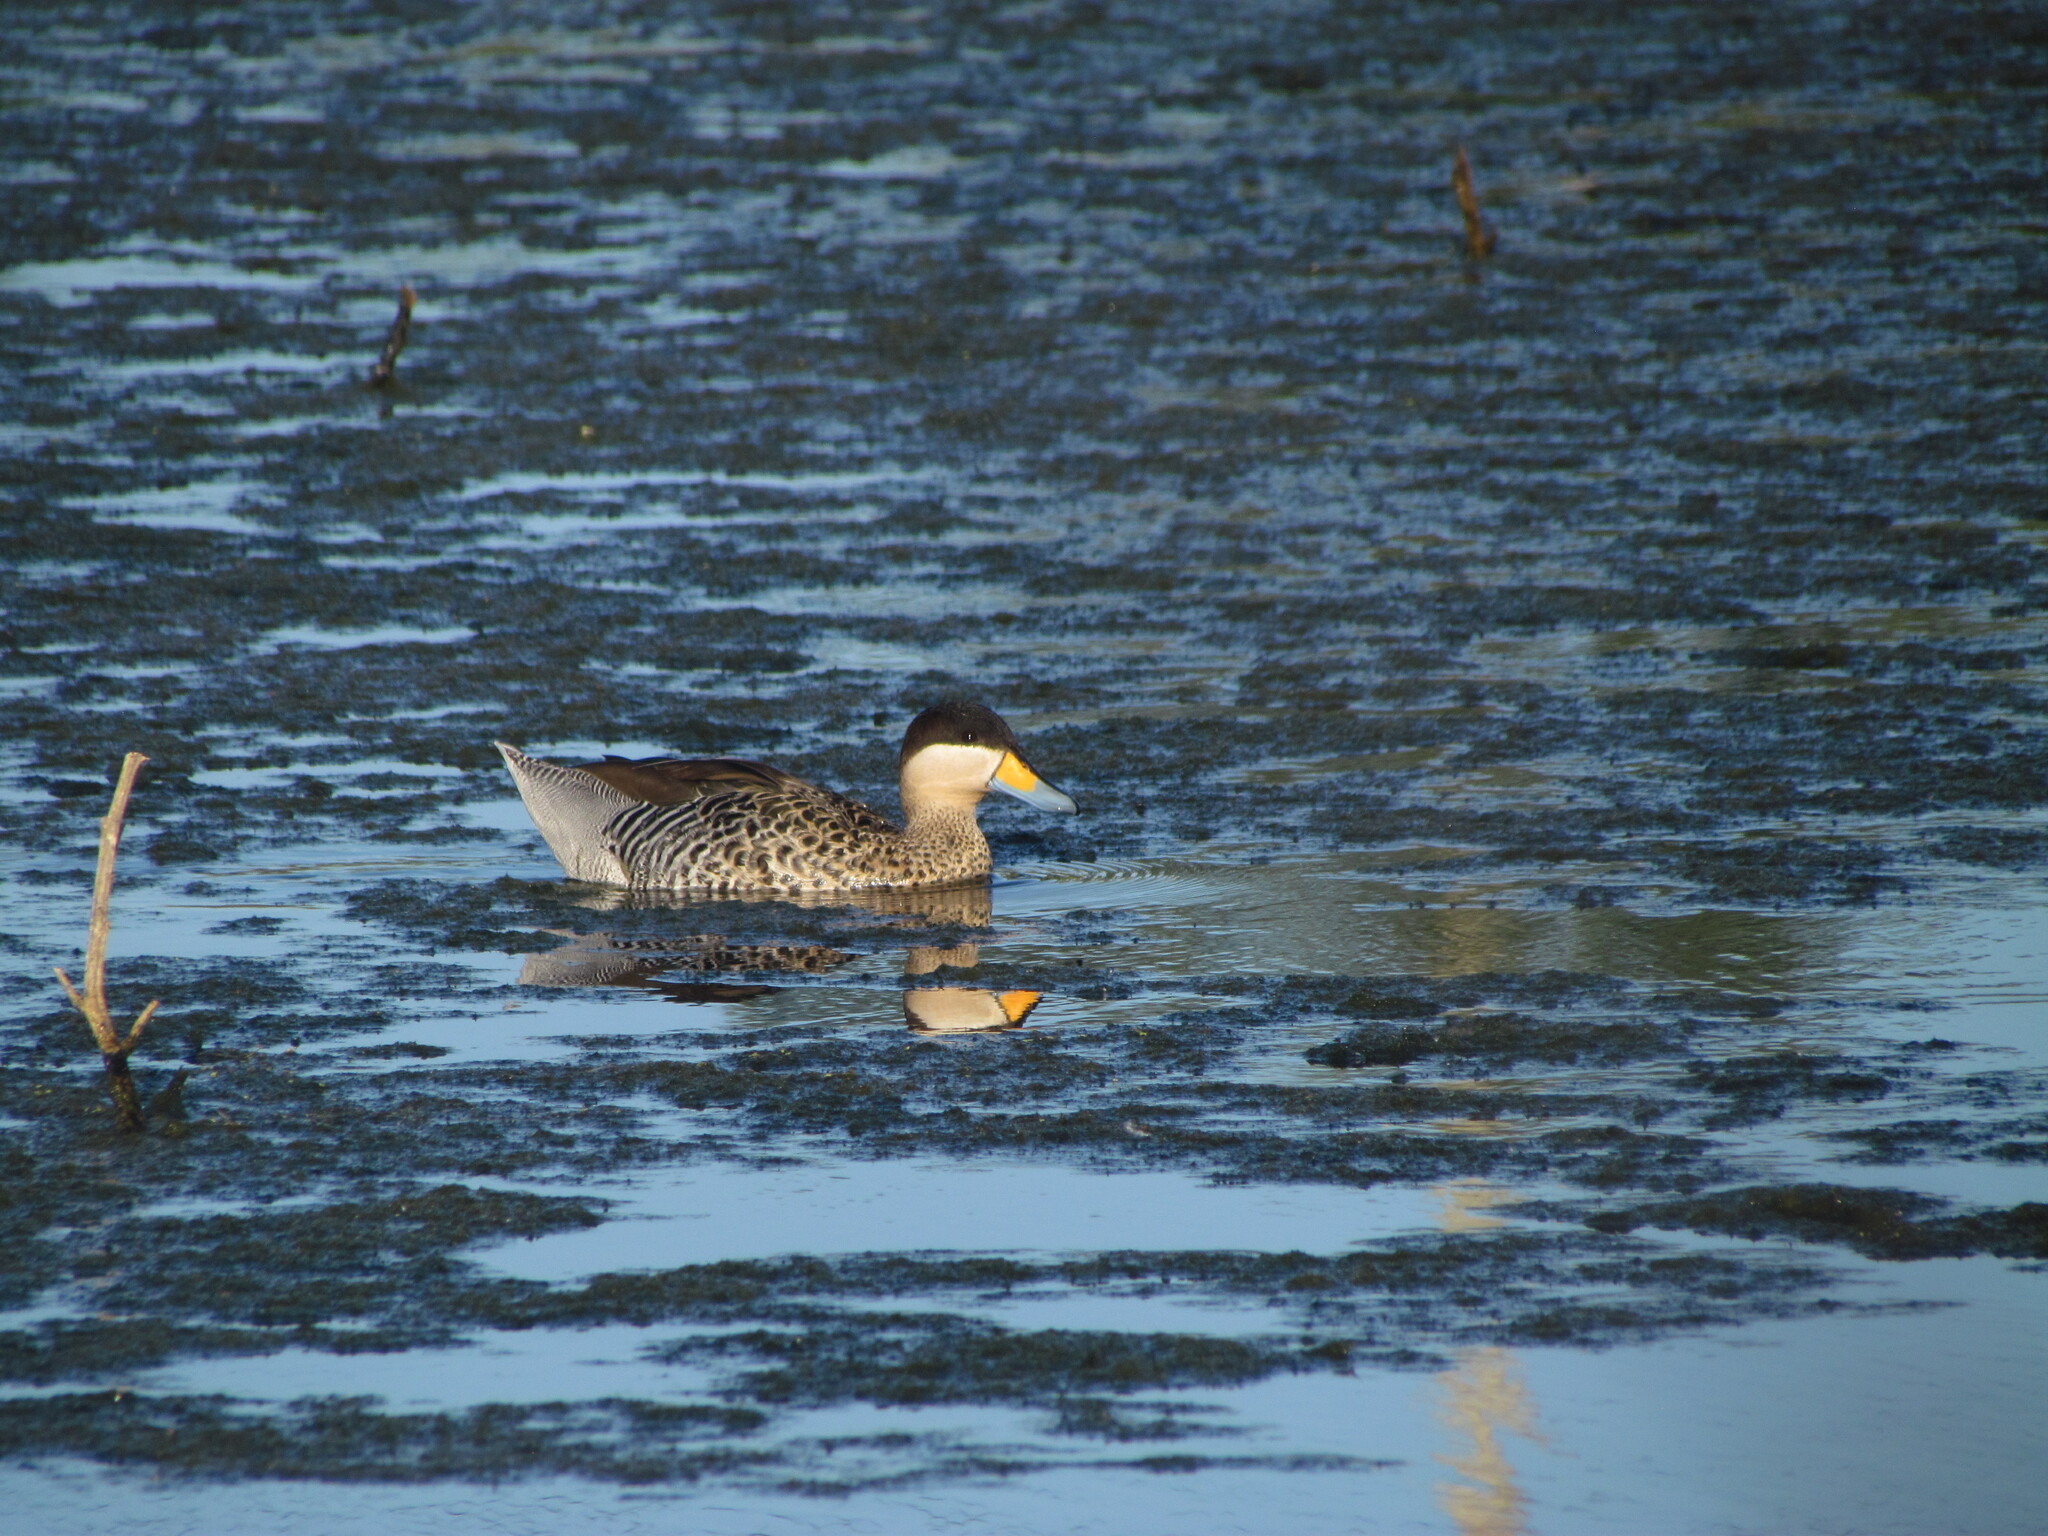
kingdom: Animalia
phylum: Chordata
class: Aves
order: Anseriformes
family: Anatidae
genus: Spatula
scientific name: Spatula versicolor
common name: Silver teal
